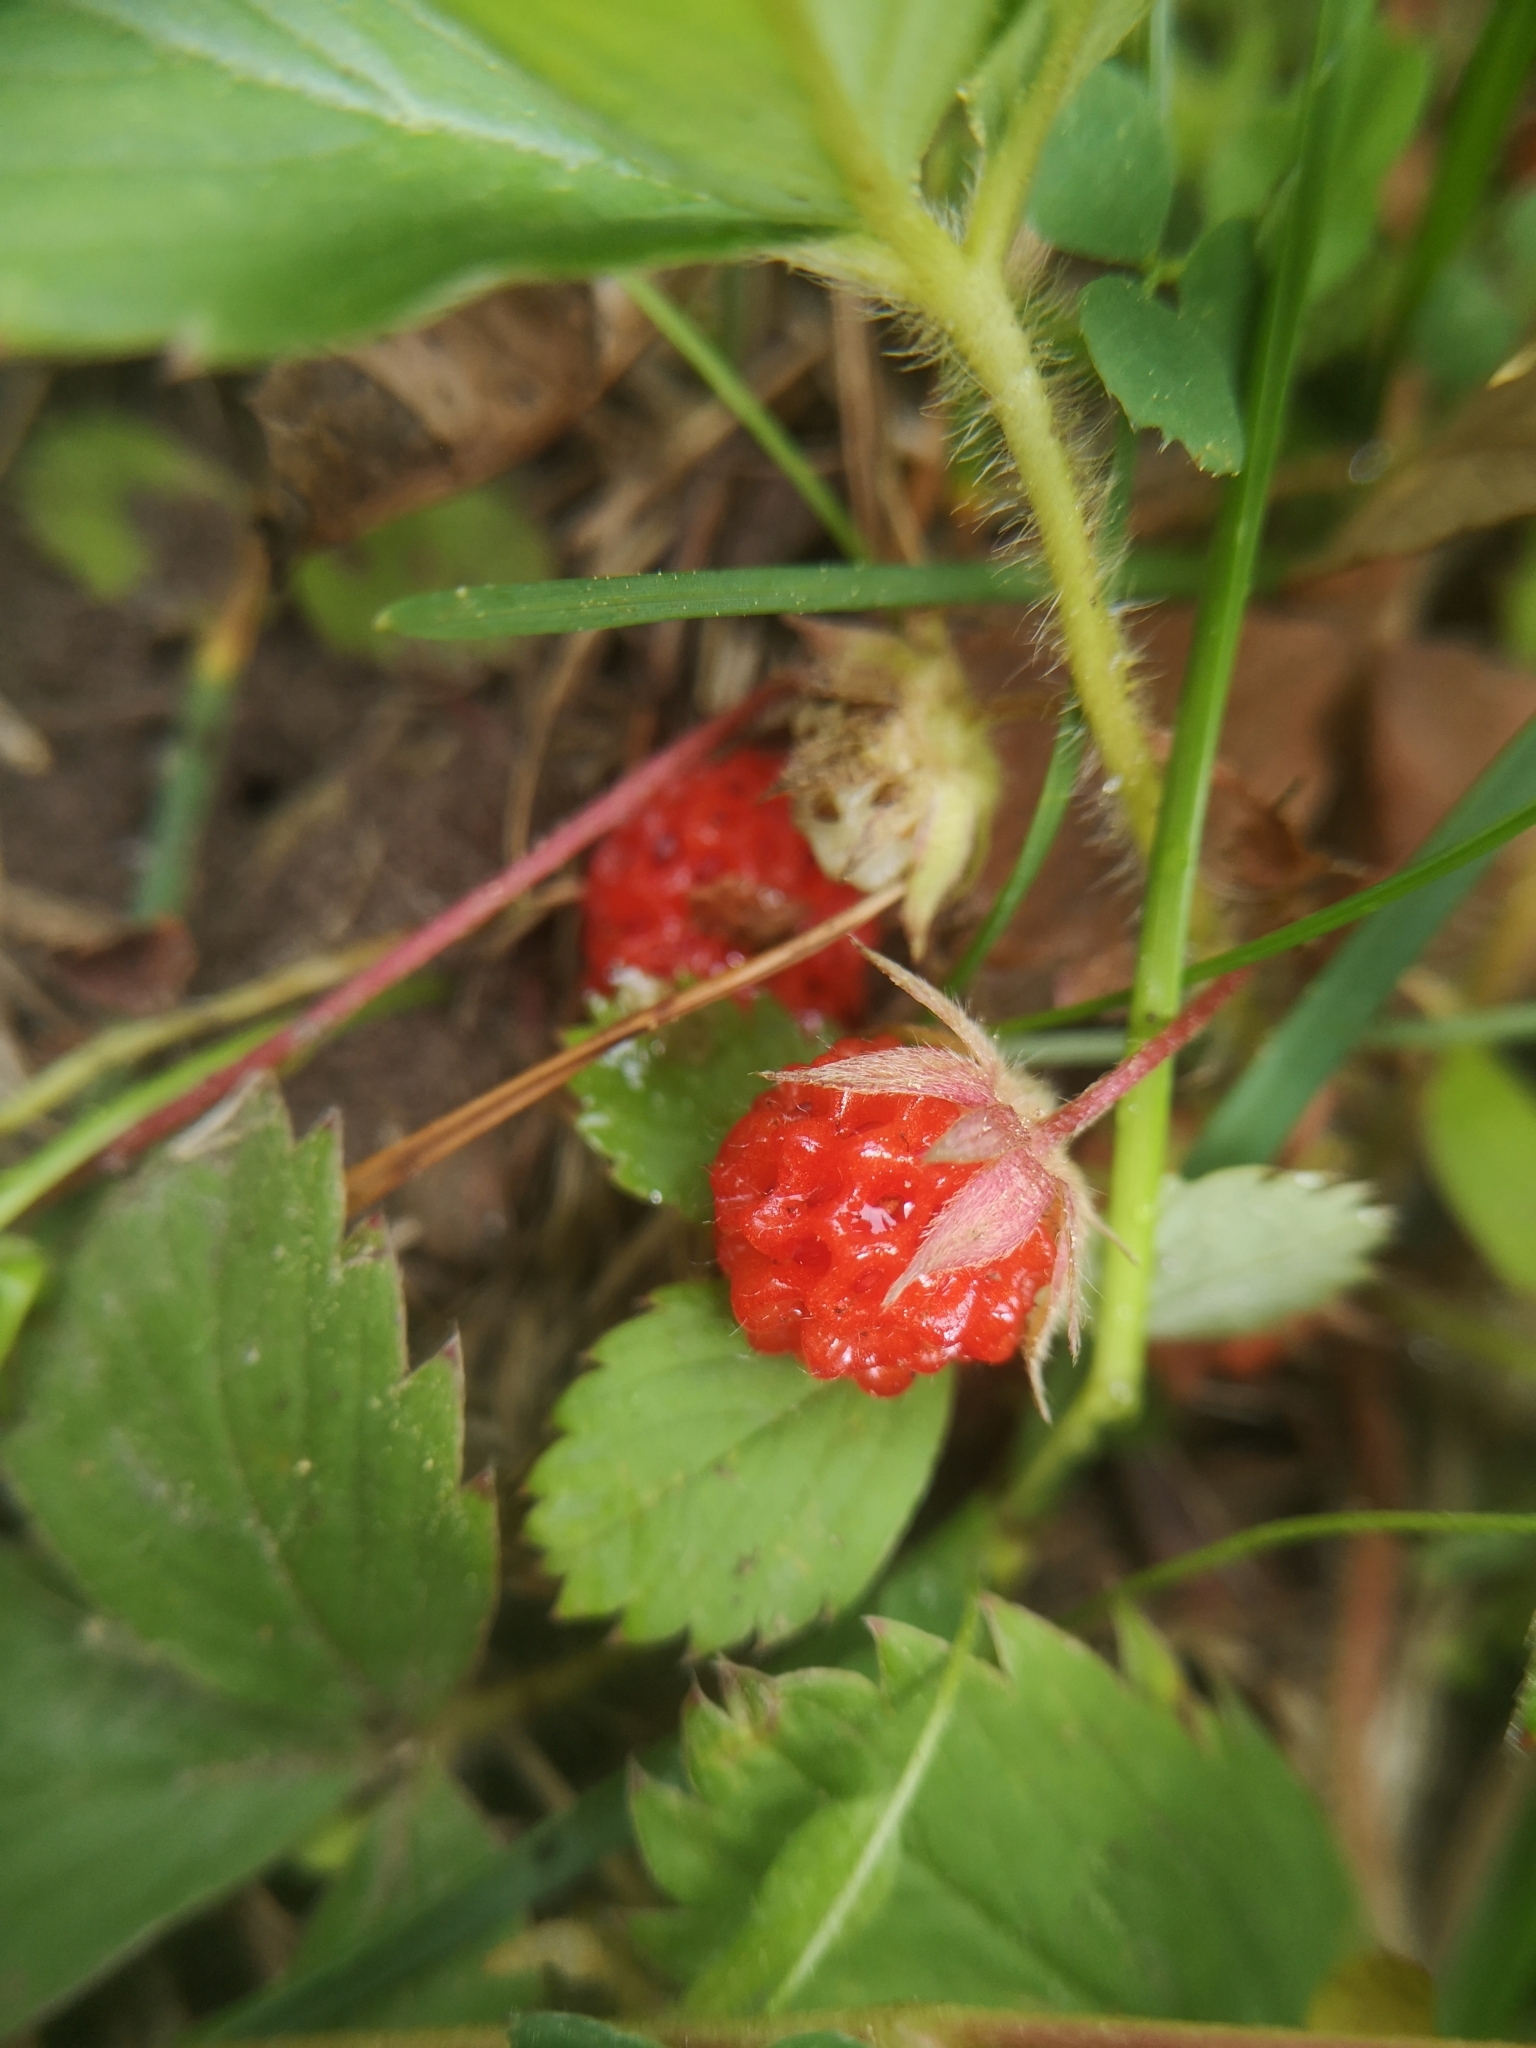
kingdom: Plantae
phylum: Tracheophyta
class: Magnoliopsida
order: Rosales
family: Rosaceae
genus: Fragaria
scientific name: Fragaria virginiana
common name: Thickleaved wild strawberry
